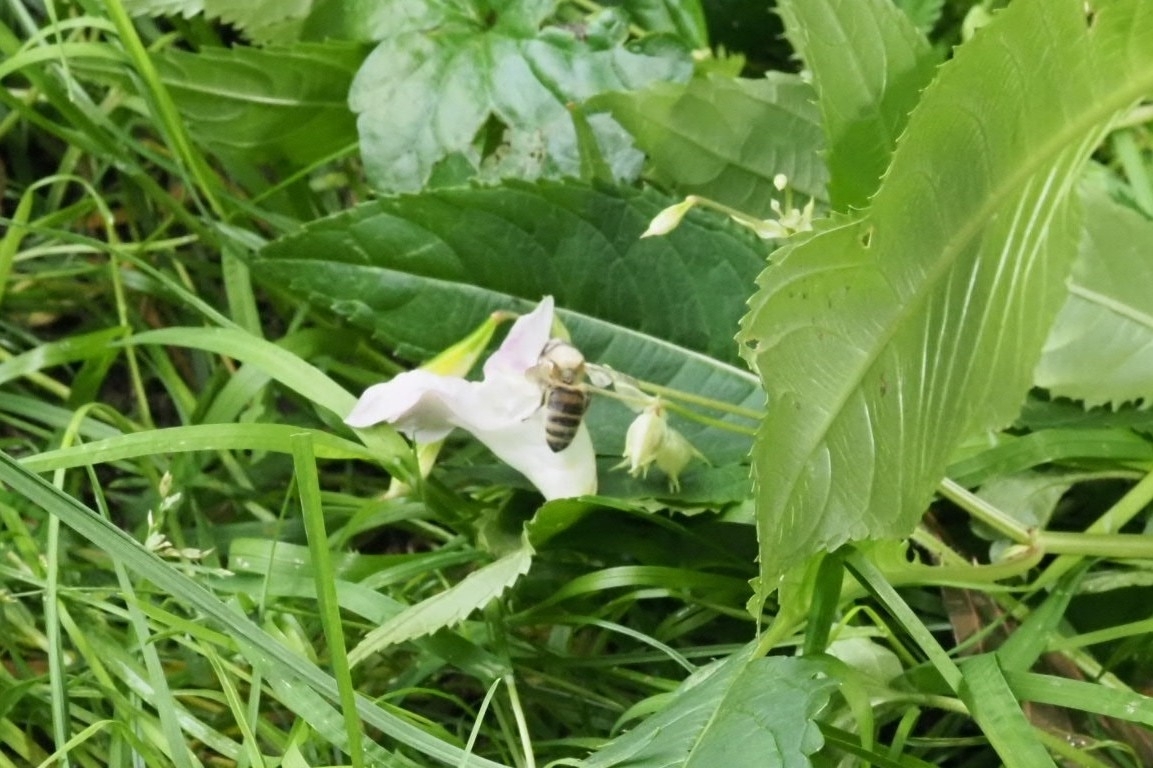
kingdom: Animalia
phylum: Arthropoda
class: Insecta
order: Hymenoptera
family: Apidae
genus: Apis
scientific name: Apis mellifera
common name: Honey bee
